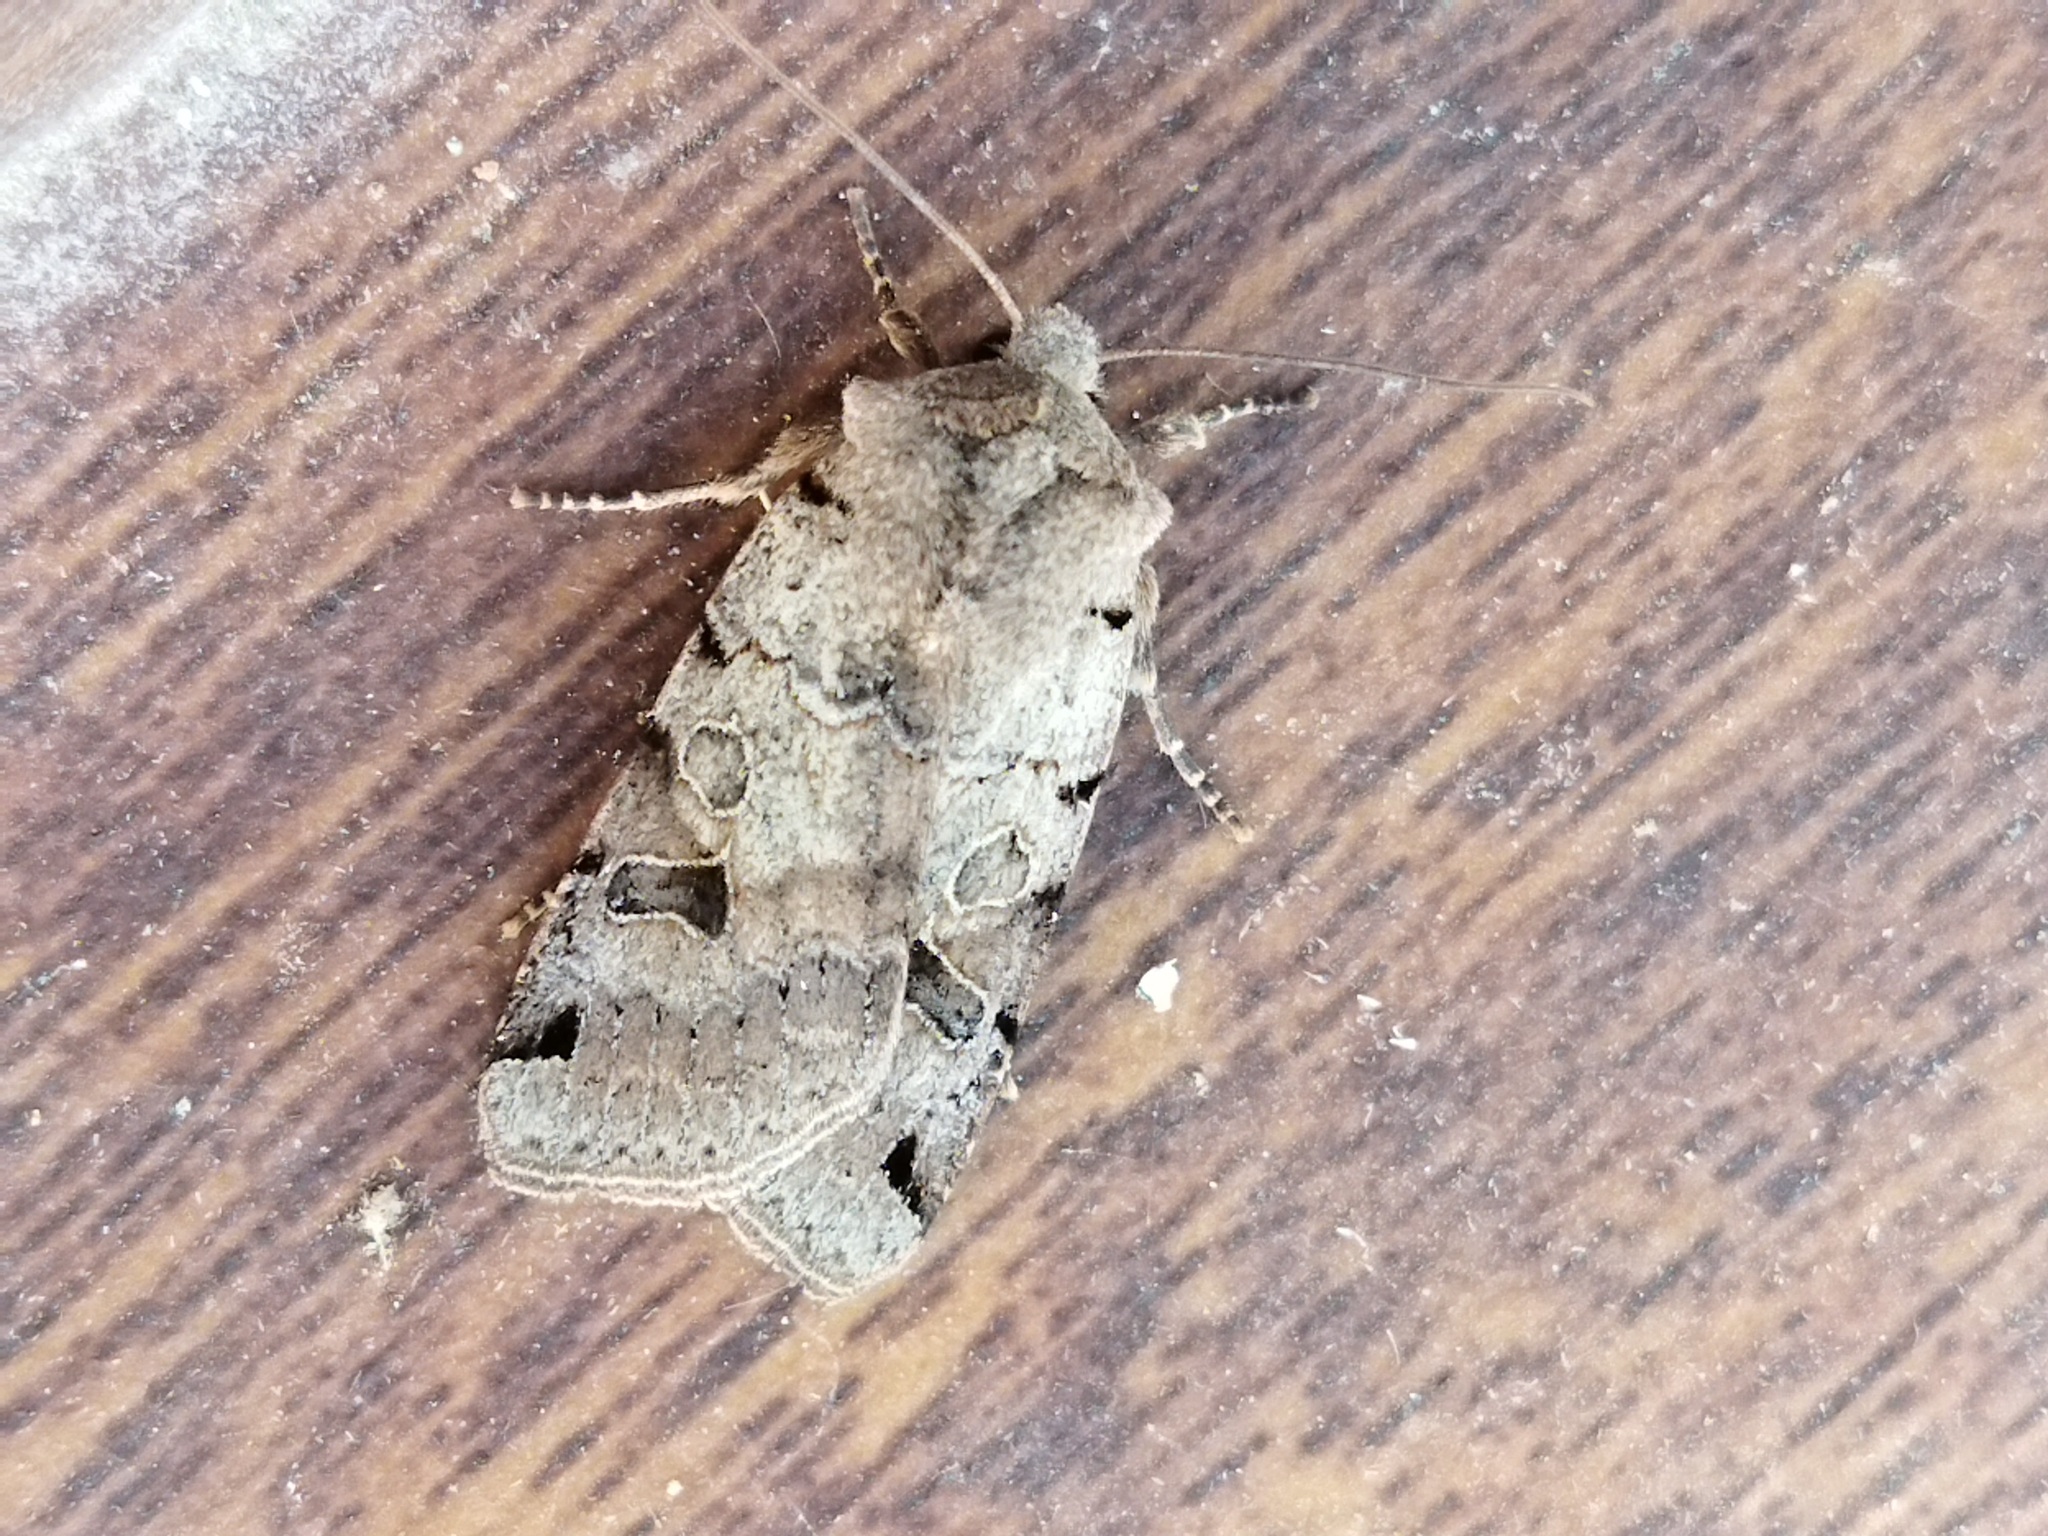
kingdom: Animalia
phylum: Arthropoda
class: Insecta
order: Lepidoptera
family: Noctuidae
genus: Agrochola
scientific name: Agrochola litura
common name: Brown-spot pinion
